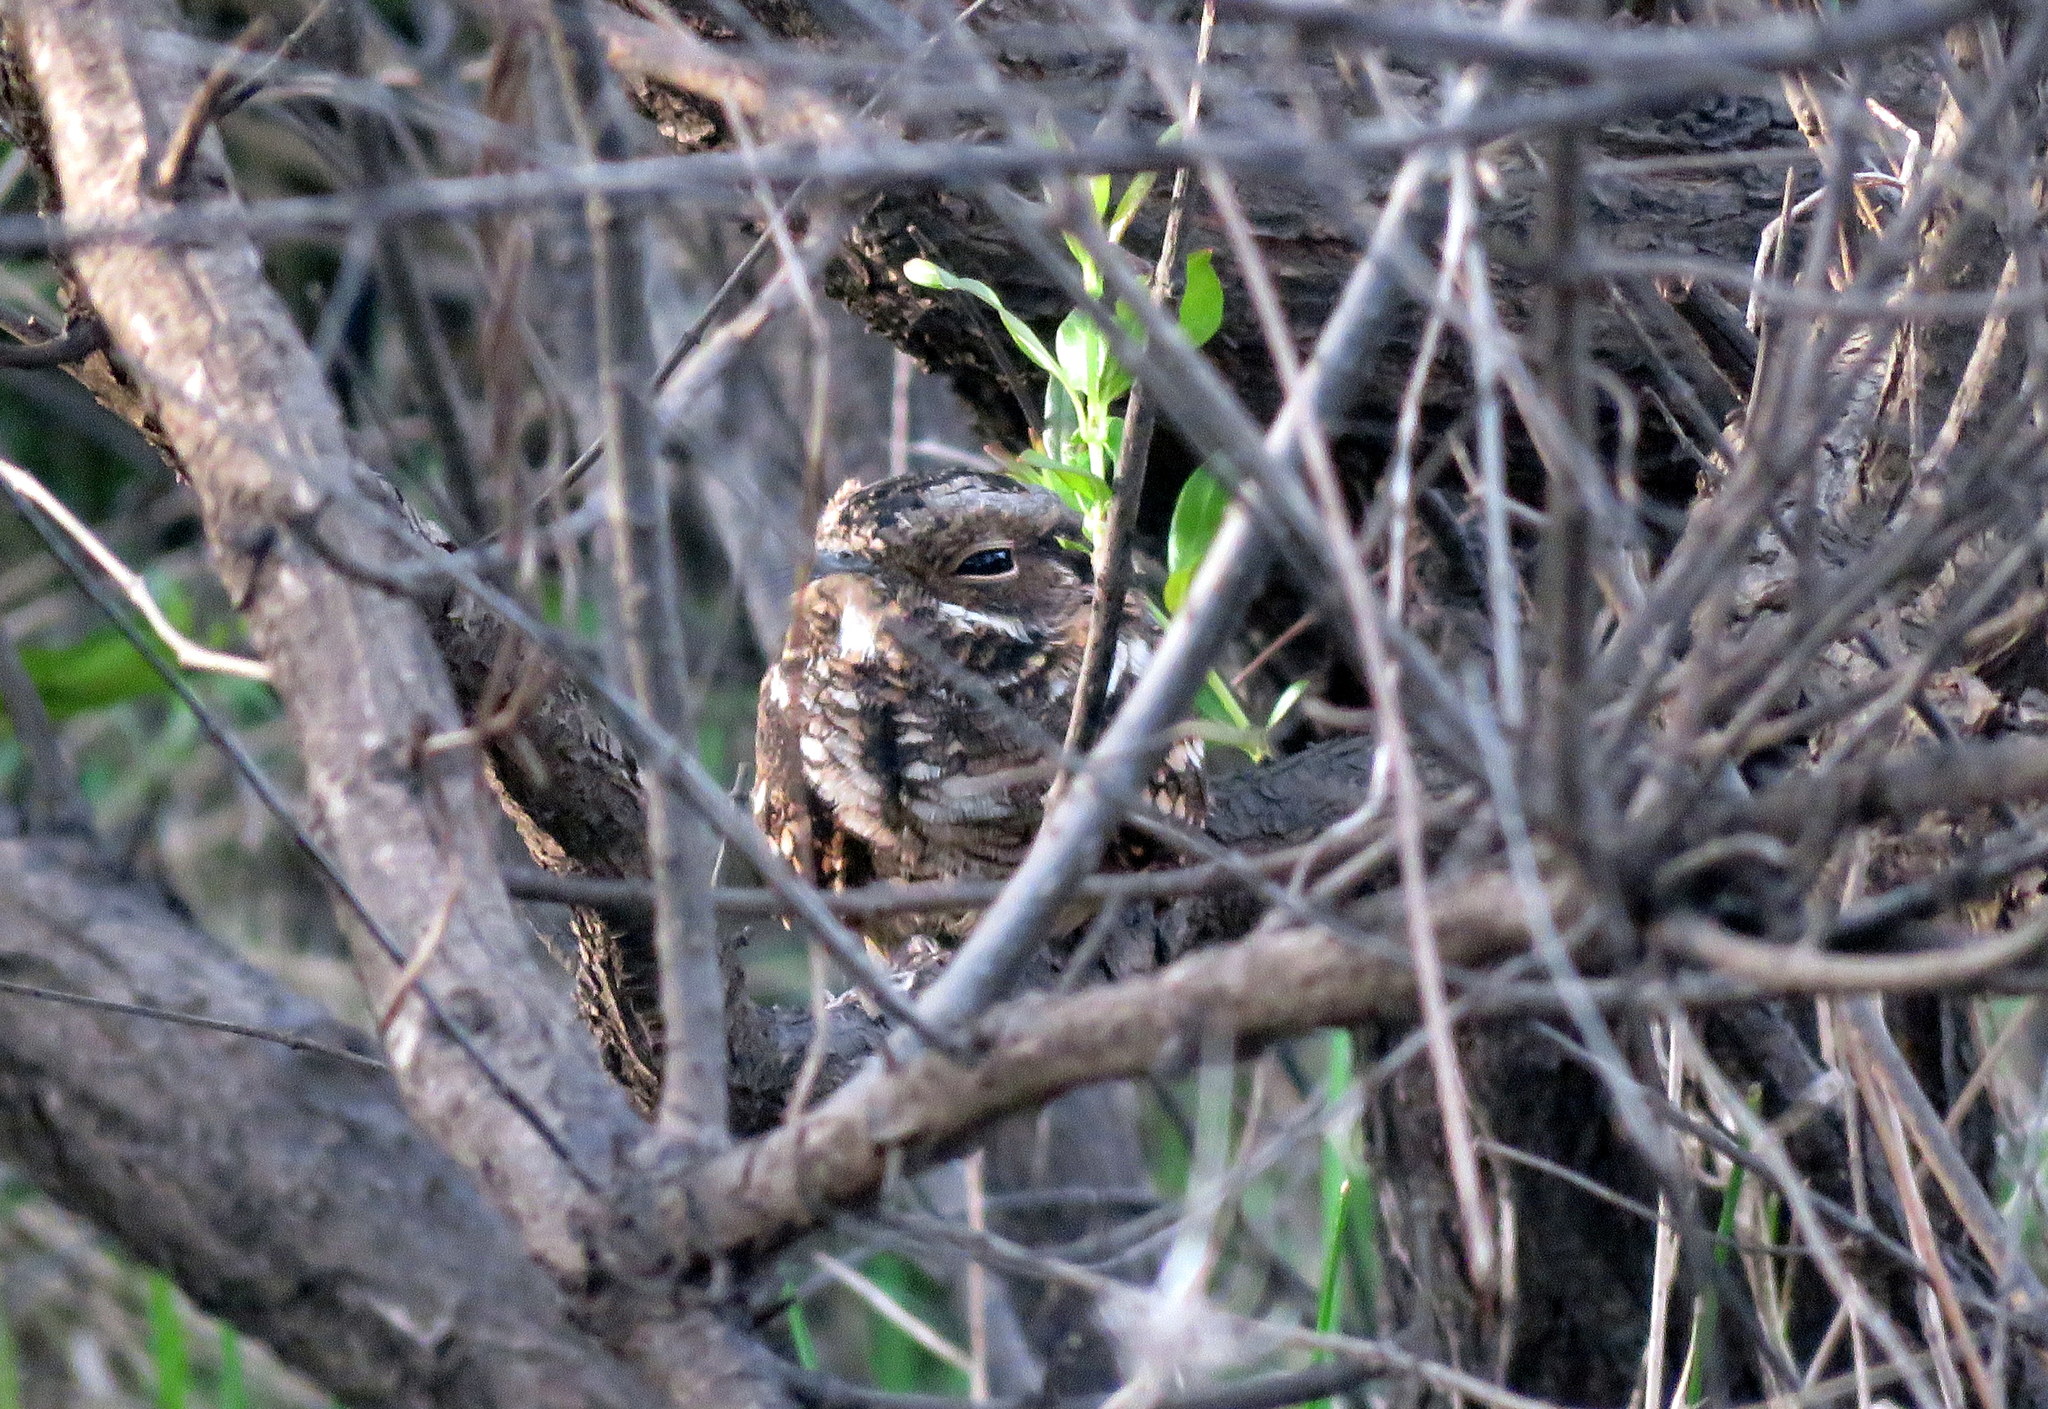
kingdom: Animalia
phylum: Chordata
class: Aves
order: Caprimulgiformes
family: Caprimulgidae
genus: Setopagis
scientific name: Setopagis parvula
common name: Little nightjar
